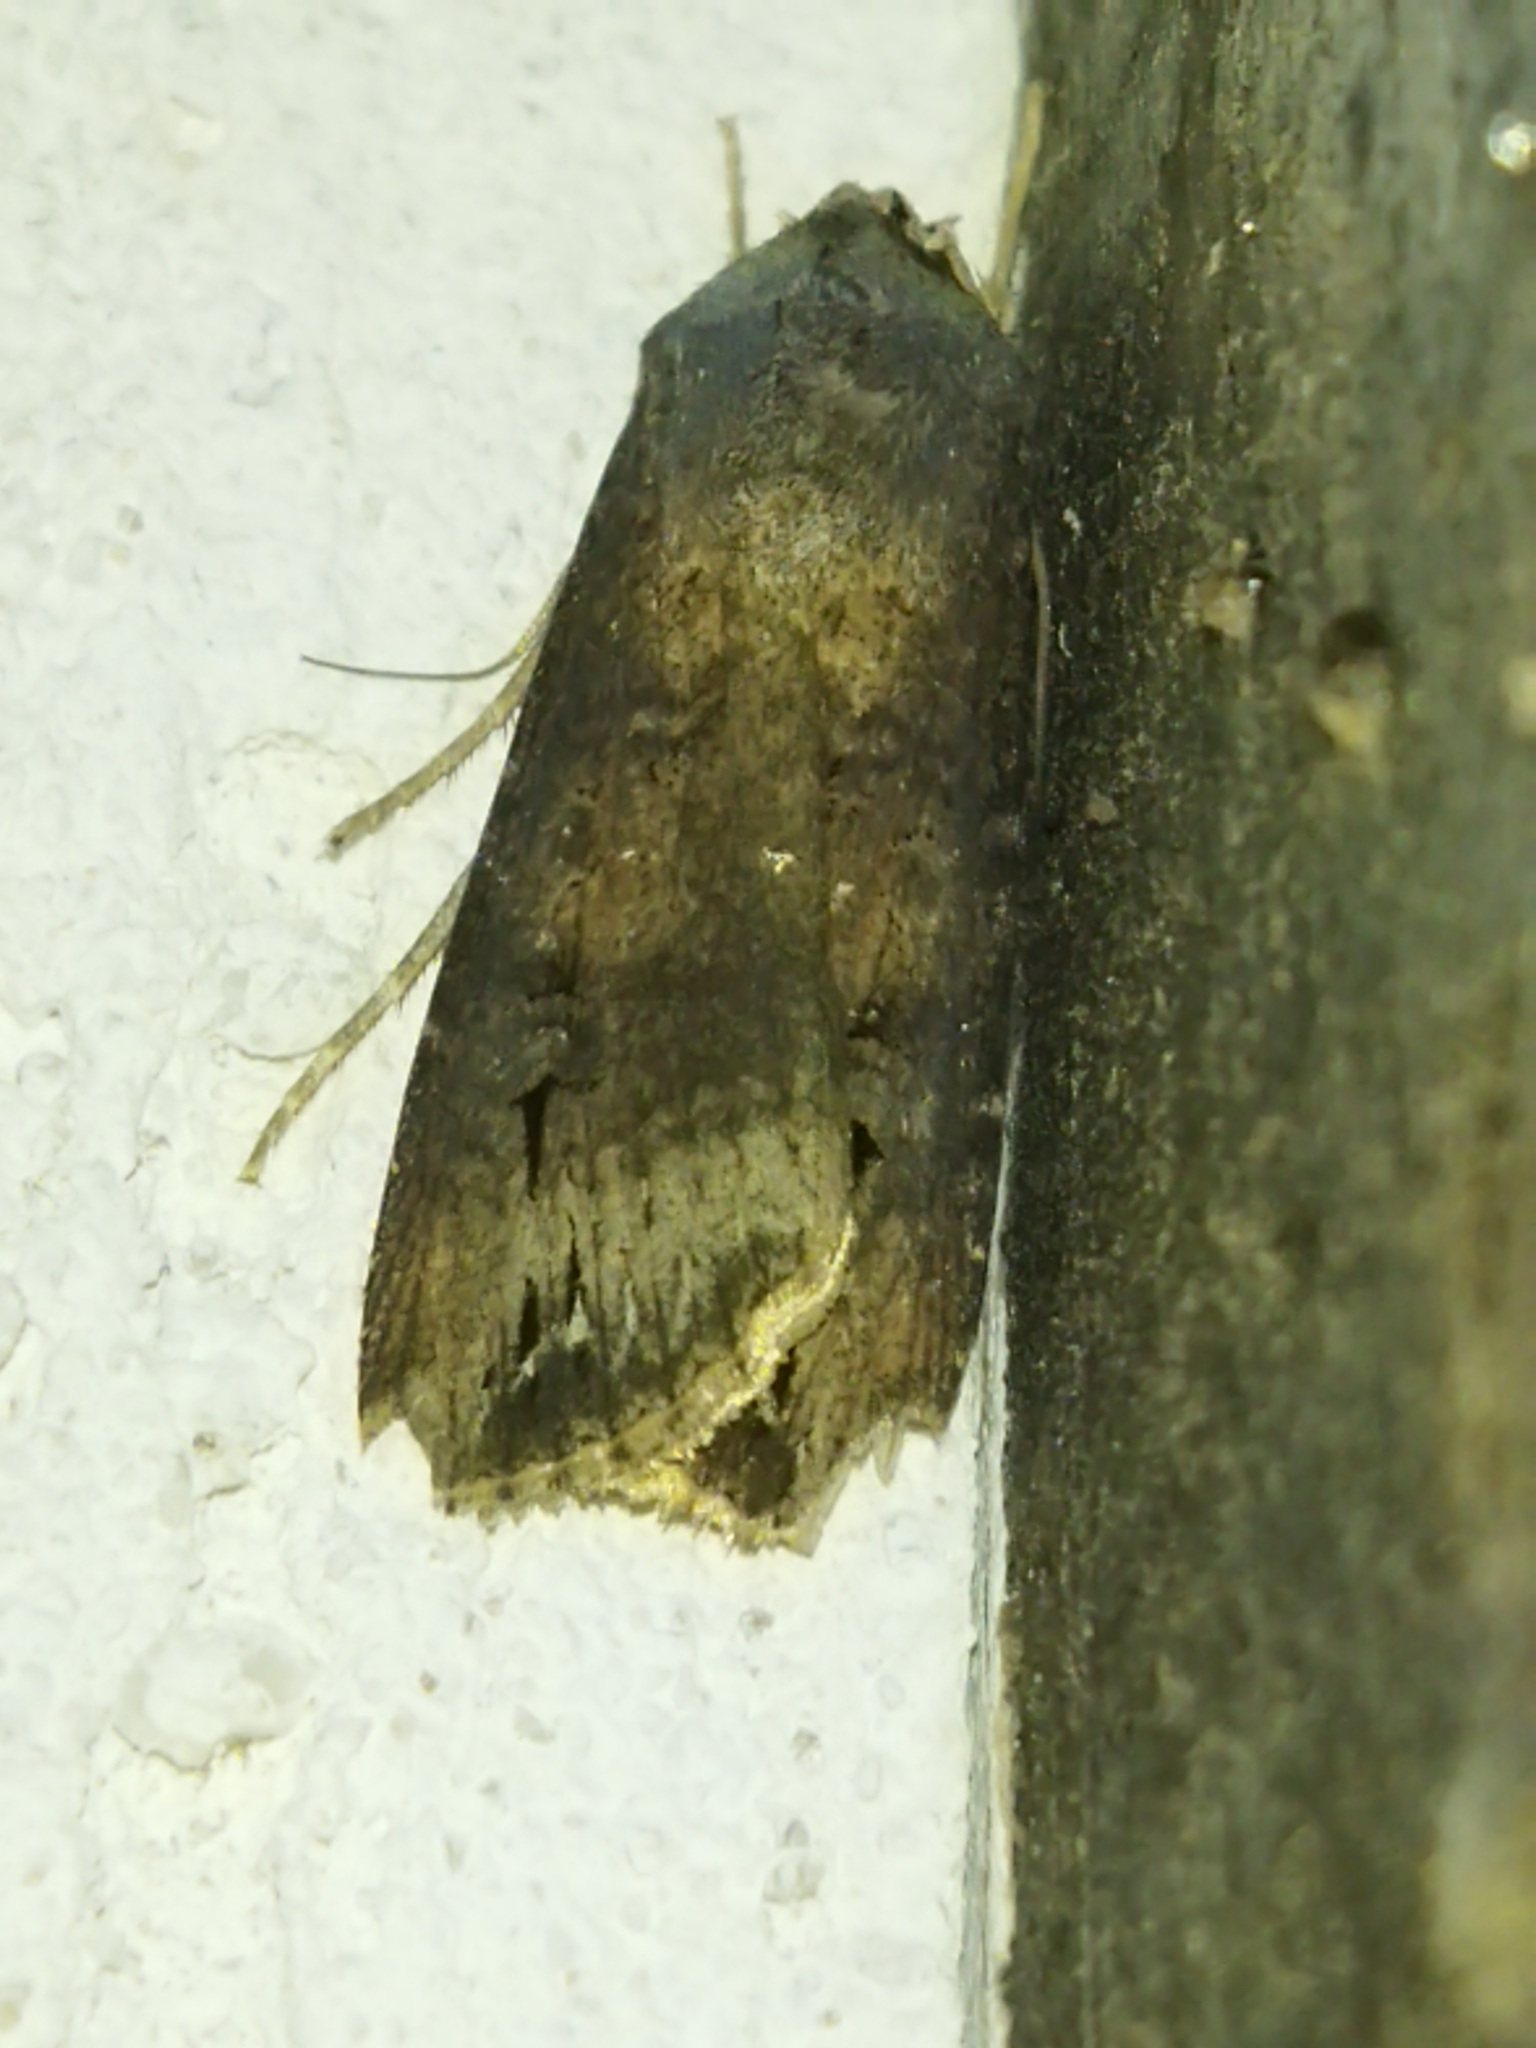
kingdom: Animalia
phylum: Arthropoda
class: Insecta
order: Lepidoptera
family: Noctuidae
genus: Agrotis
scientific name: Agrotis ipsilon
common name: Dark sword-grass
